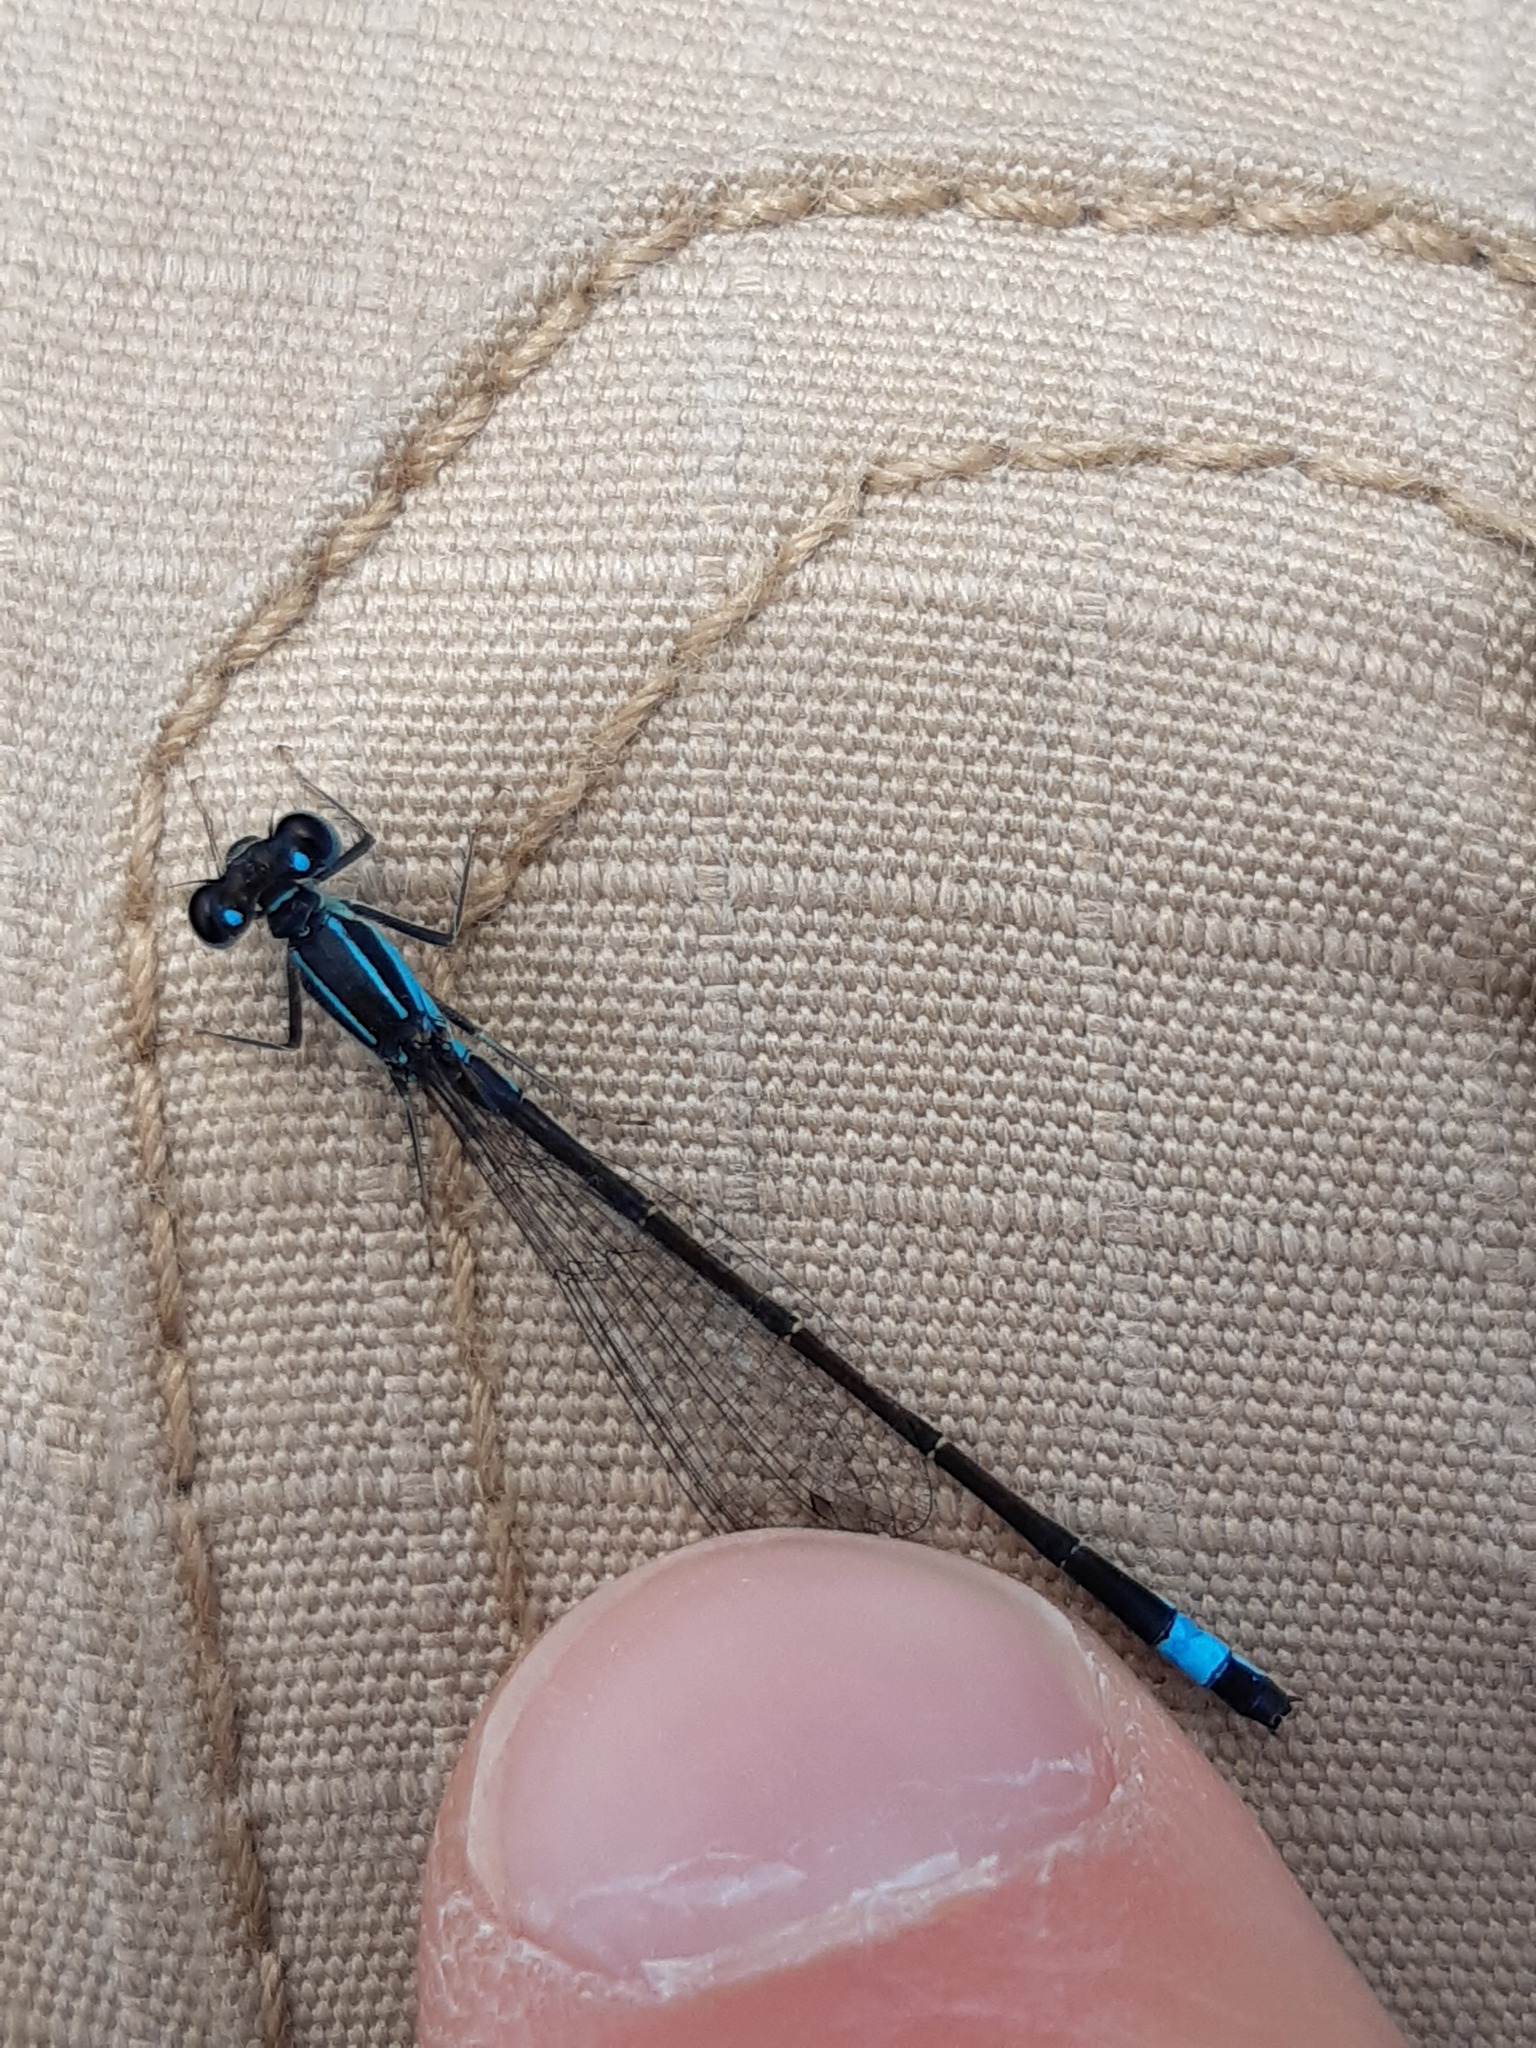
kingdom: Animalia
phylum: Arthropoda
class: Insecta
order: Odonata
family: Coenagrionidae
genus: Ischnura
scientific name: Ischnura elegans
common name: Blue-tailed damselfly
